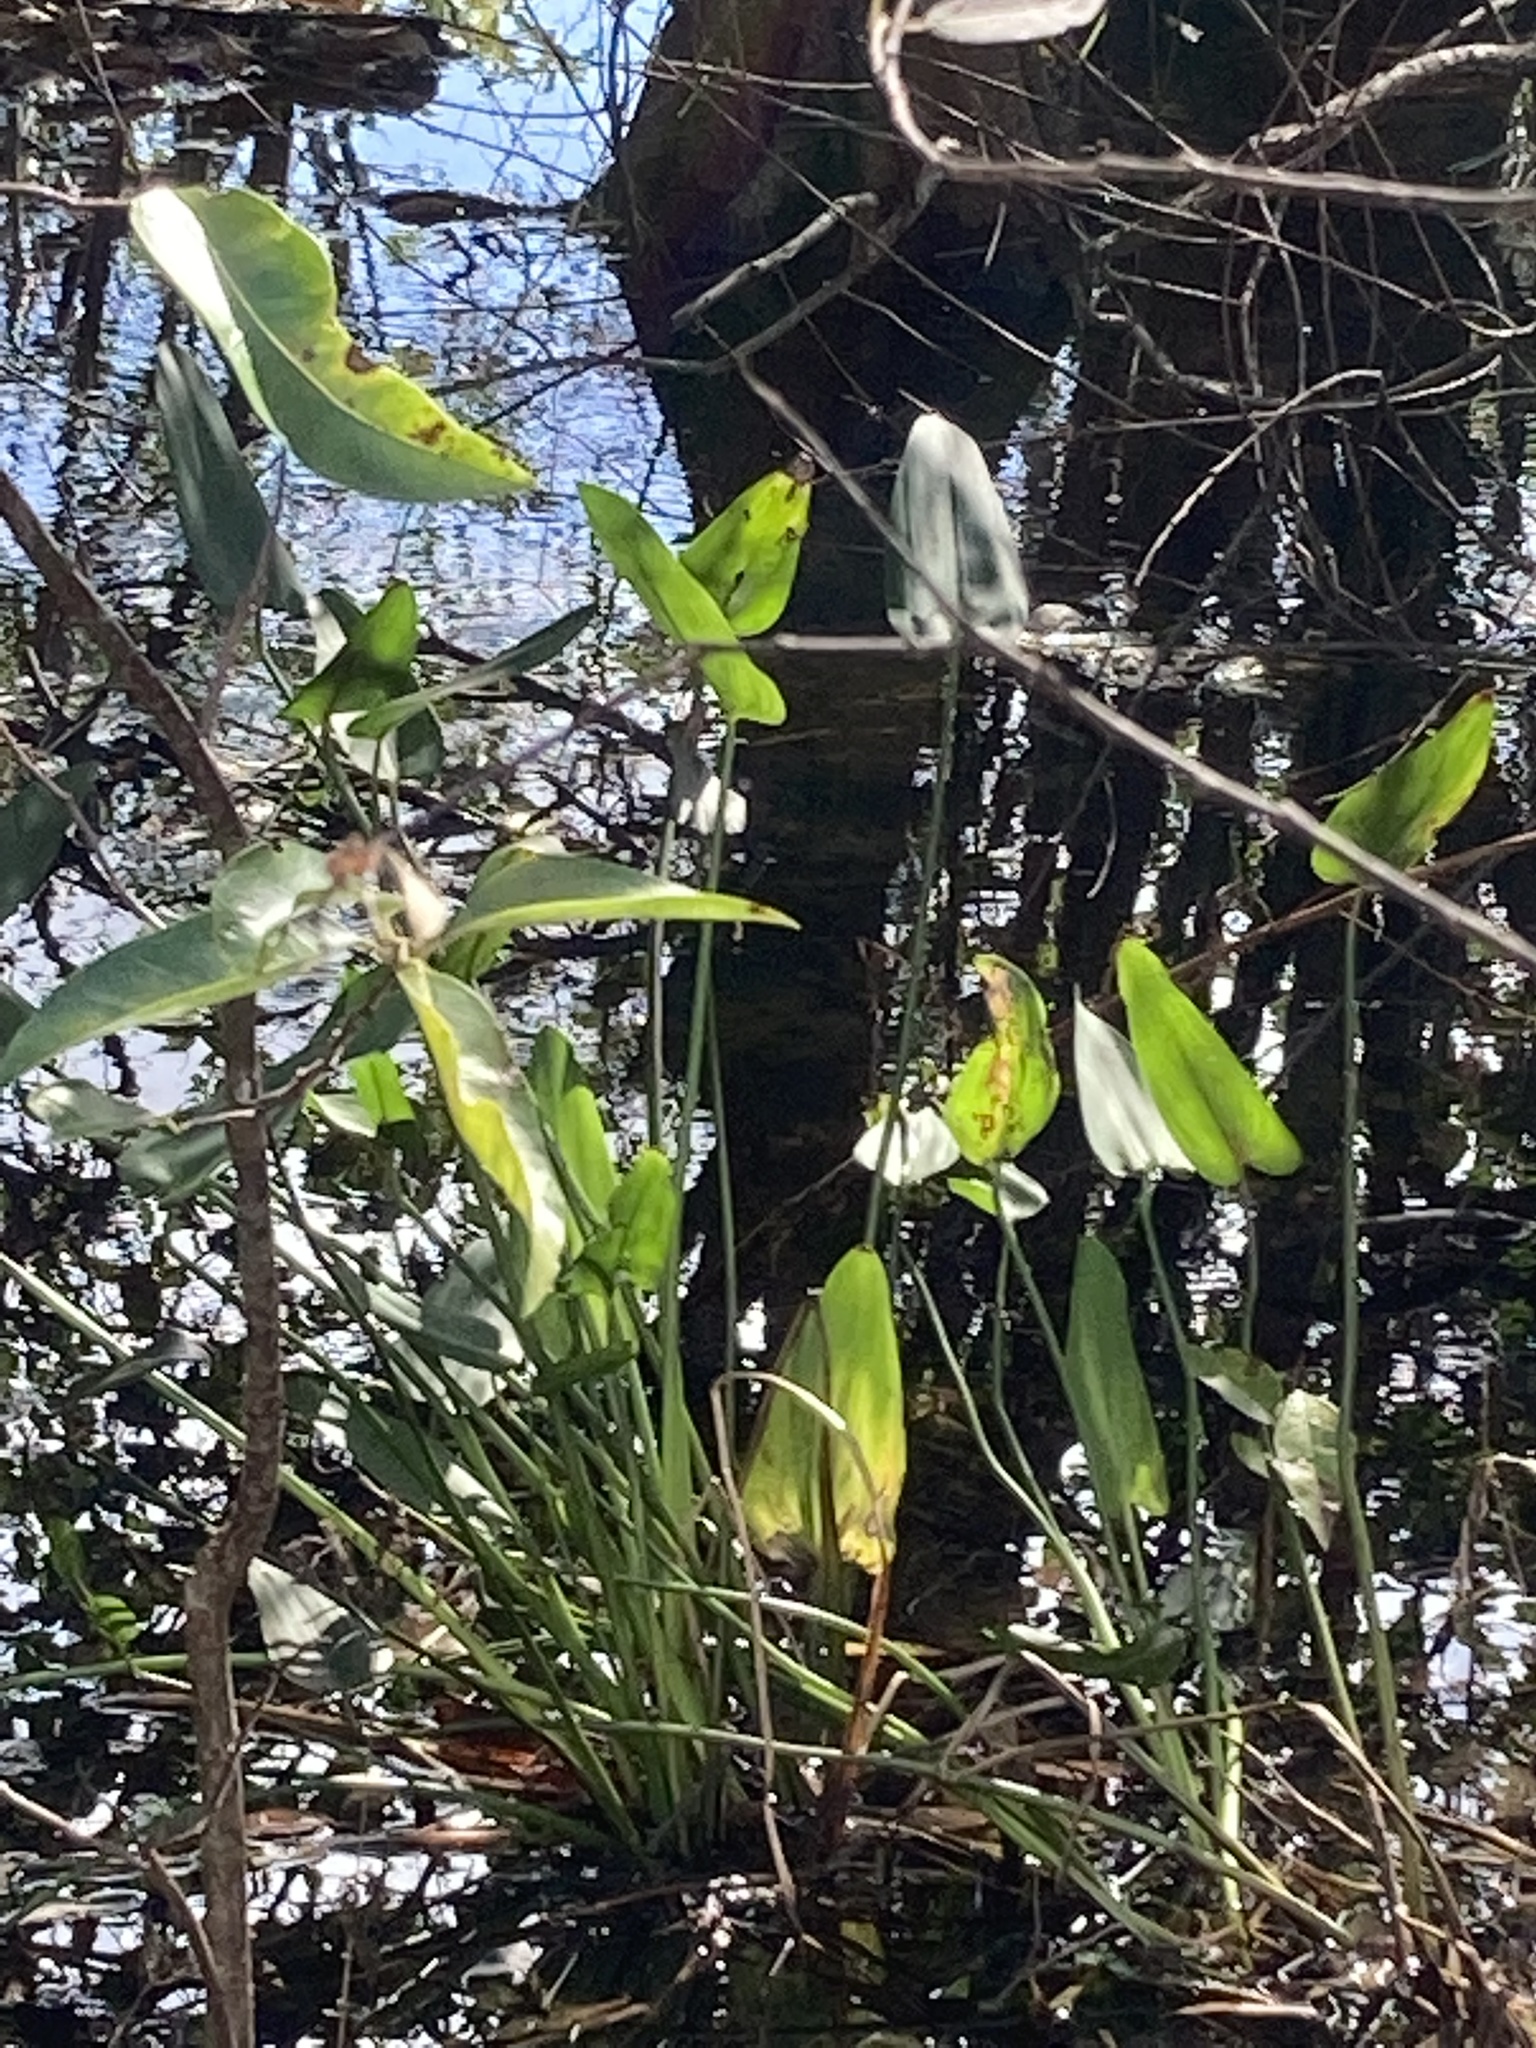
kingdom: Plantae
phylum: Tracheophyta
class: Liliopsida
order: Commelinales
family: Pontederiaceae
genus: Pontederia
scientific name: Pontederia cordata
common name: Pickerelweed
